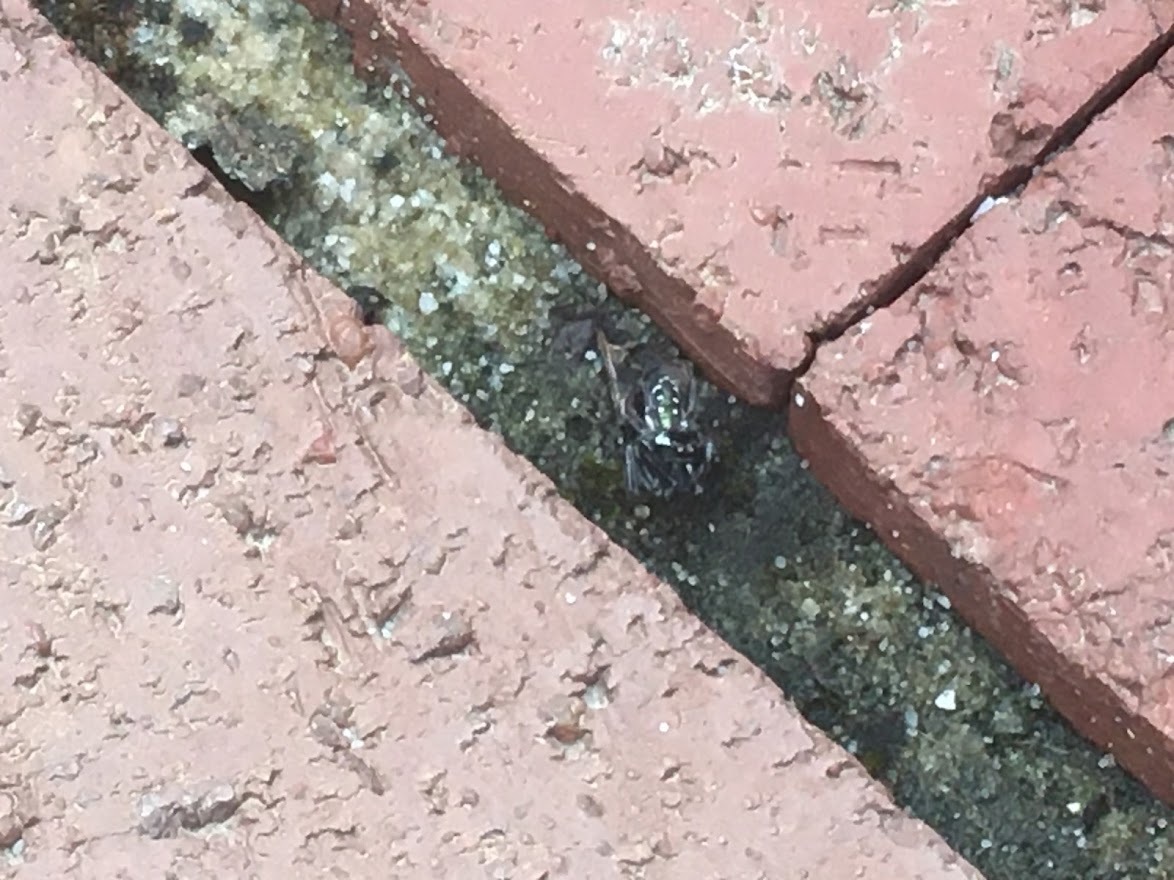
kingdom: Animalia
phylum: Arthropoda
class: Arachnida
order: Araneae
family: Salticidae
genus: Paraphidippus
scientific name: Paraphidippus aurantius
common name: Jumping spiders
